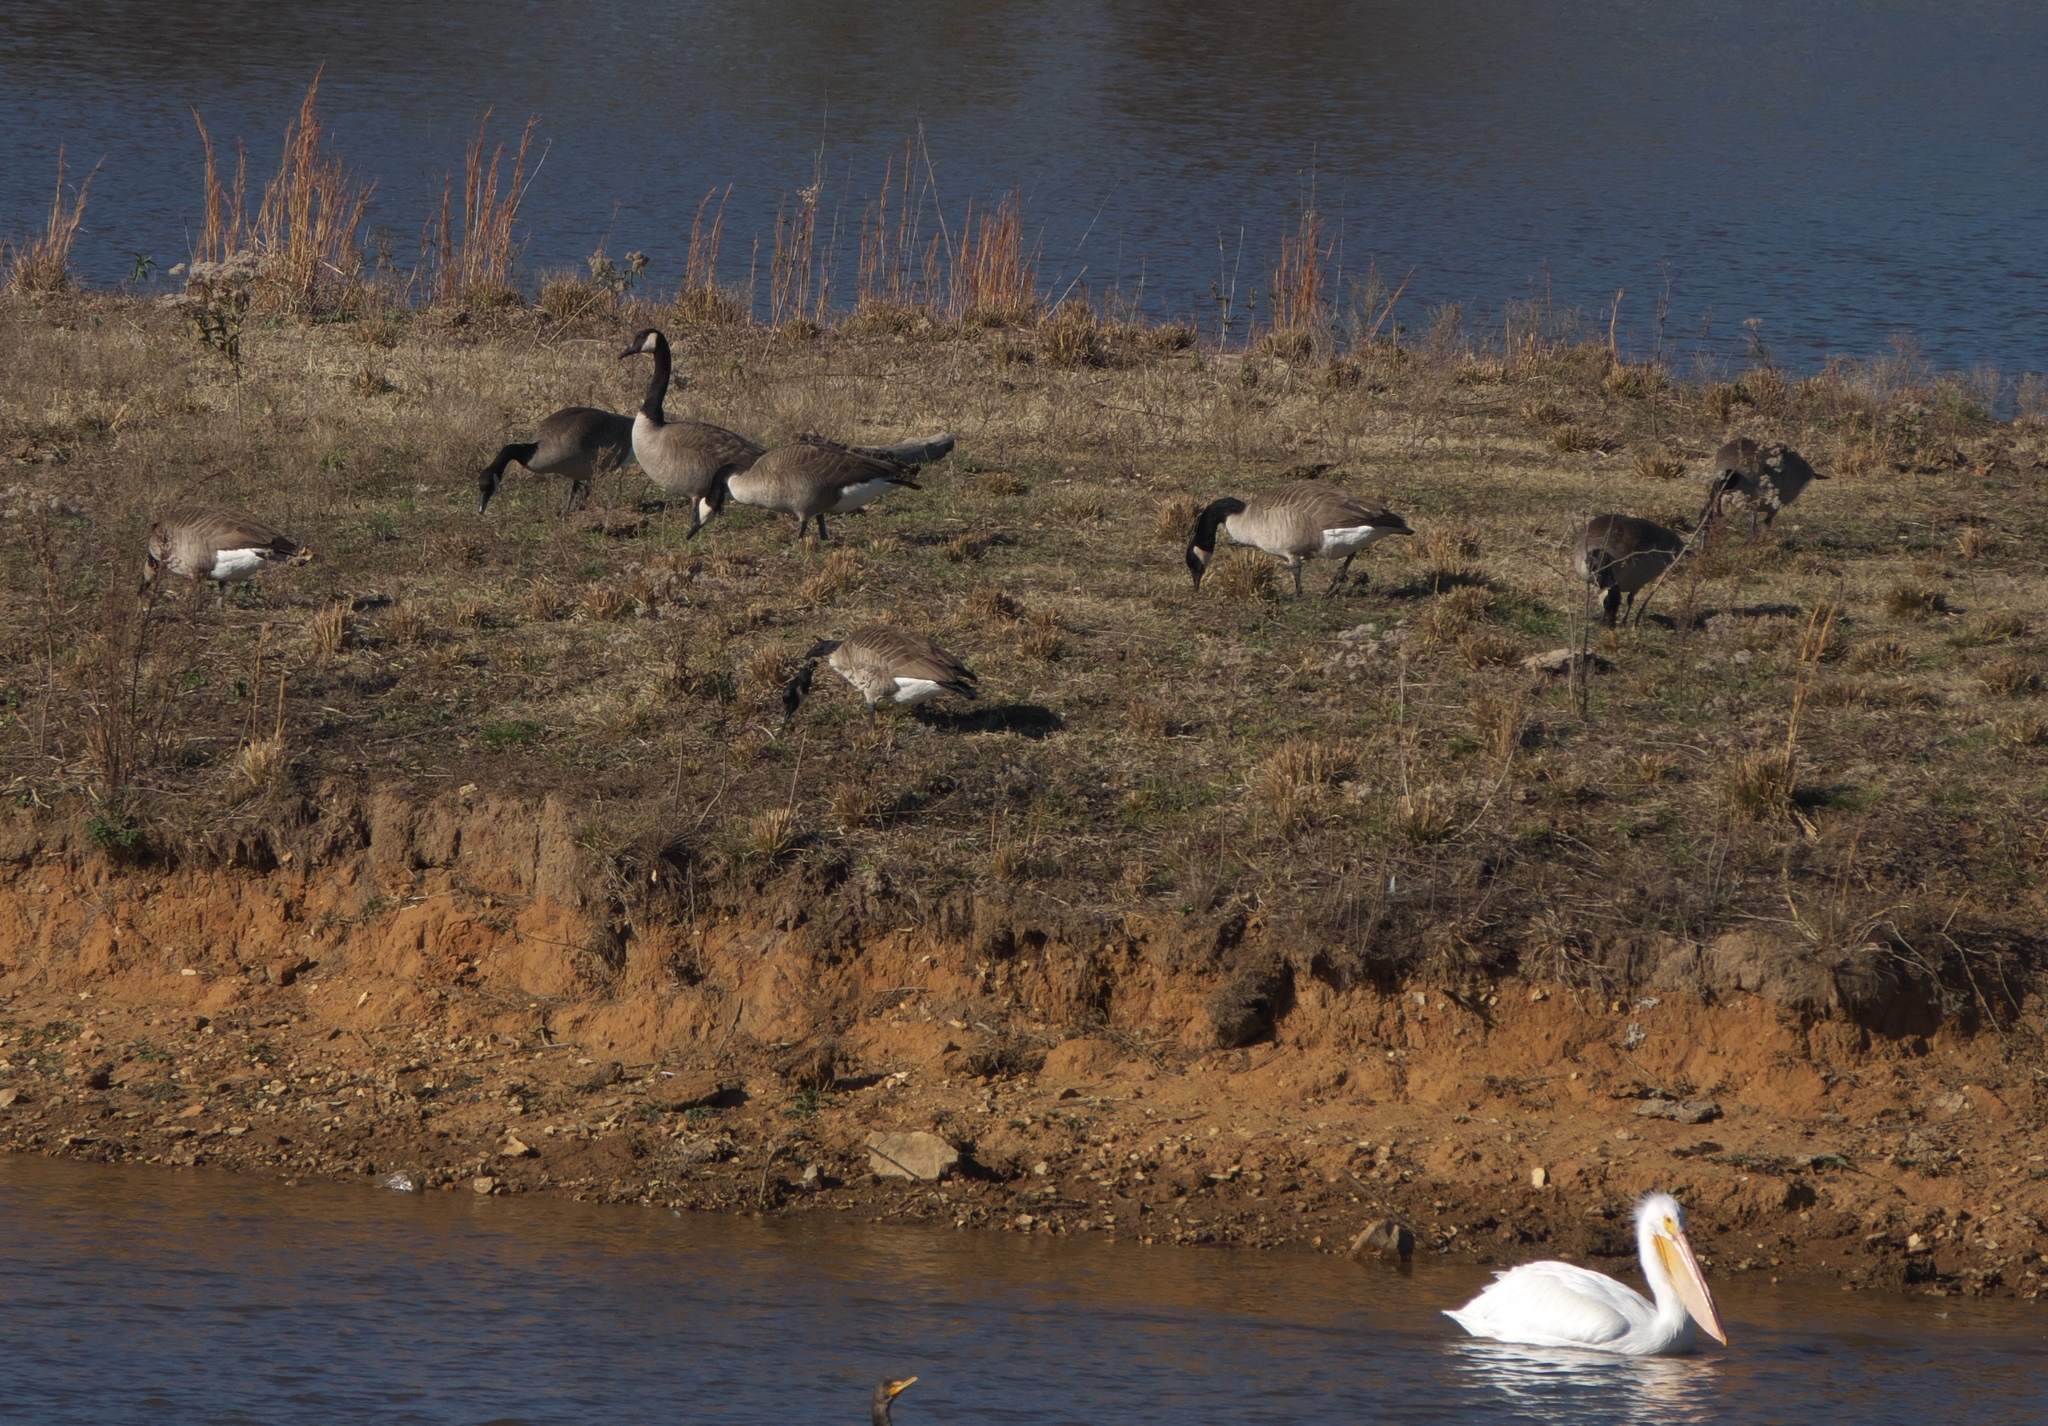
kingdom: Animalia
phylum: Chordata
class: Aves
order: Anseriformes
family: Anatidae
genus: Branta
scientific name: Branta canadensis
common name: Canada goose
